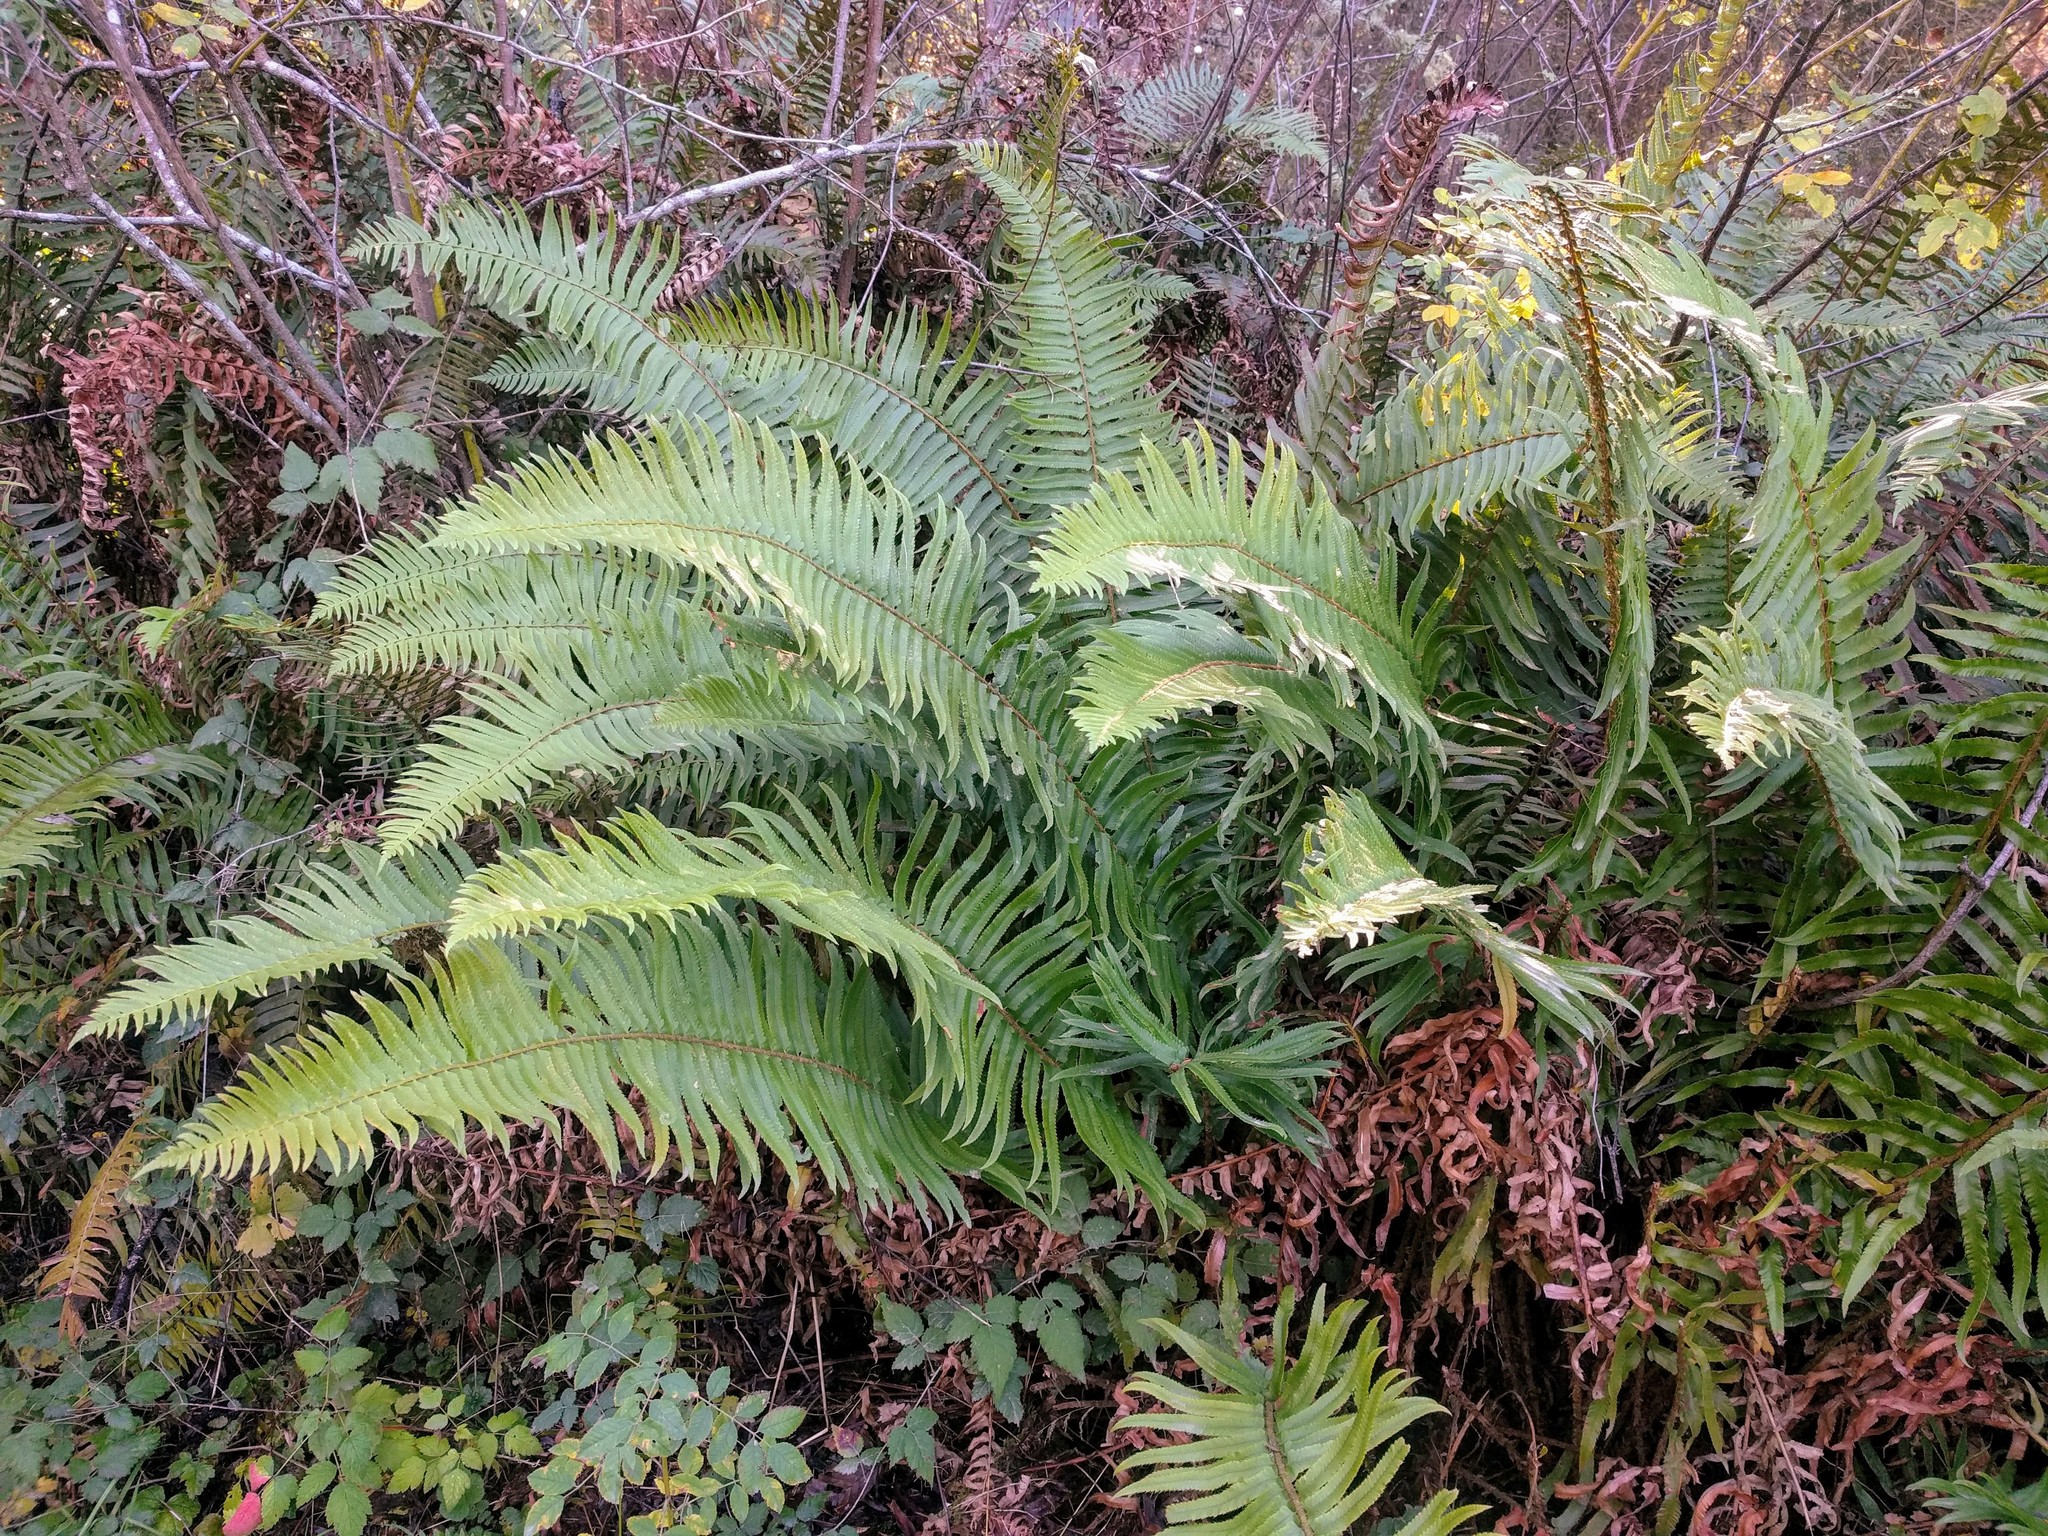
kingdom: Plantae
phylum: Tracheophyta
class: Polypodiopsida
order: Polypodiales
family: Dryopteridaceae
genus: Polystichum
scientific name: Polystichum munitum
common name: Western sword-fern
